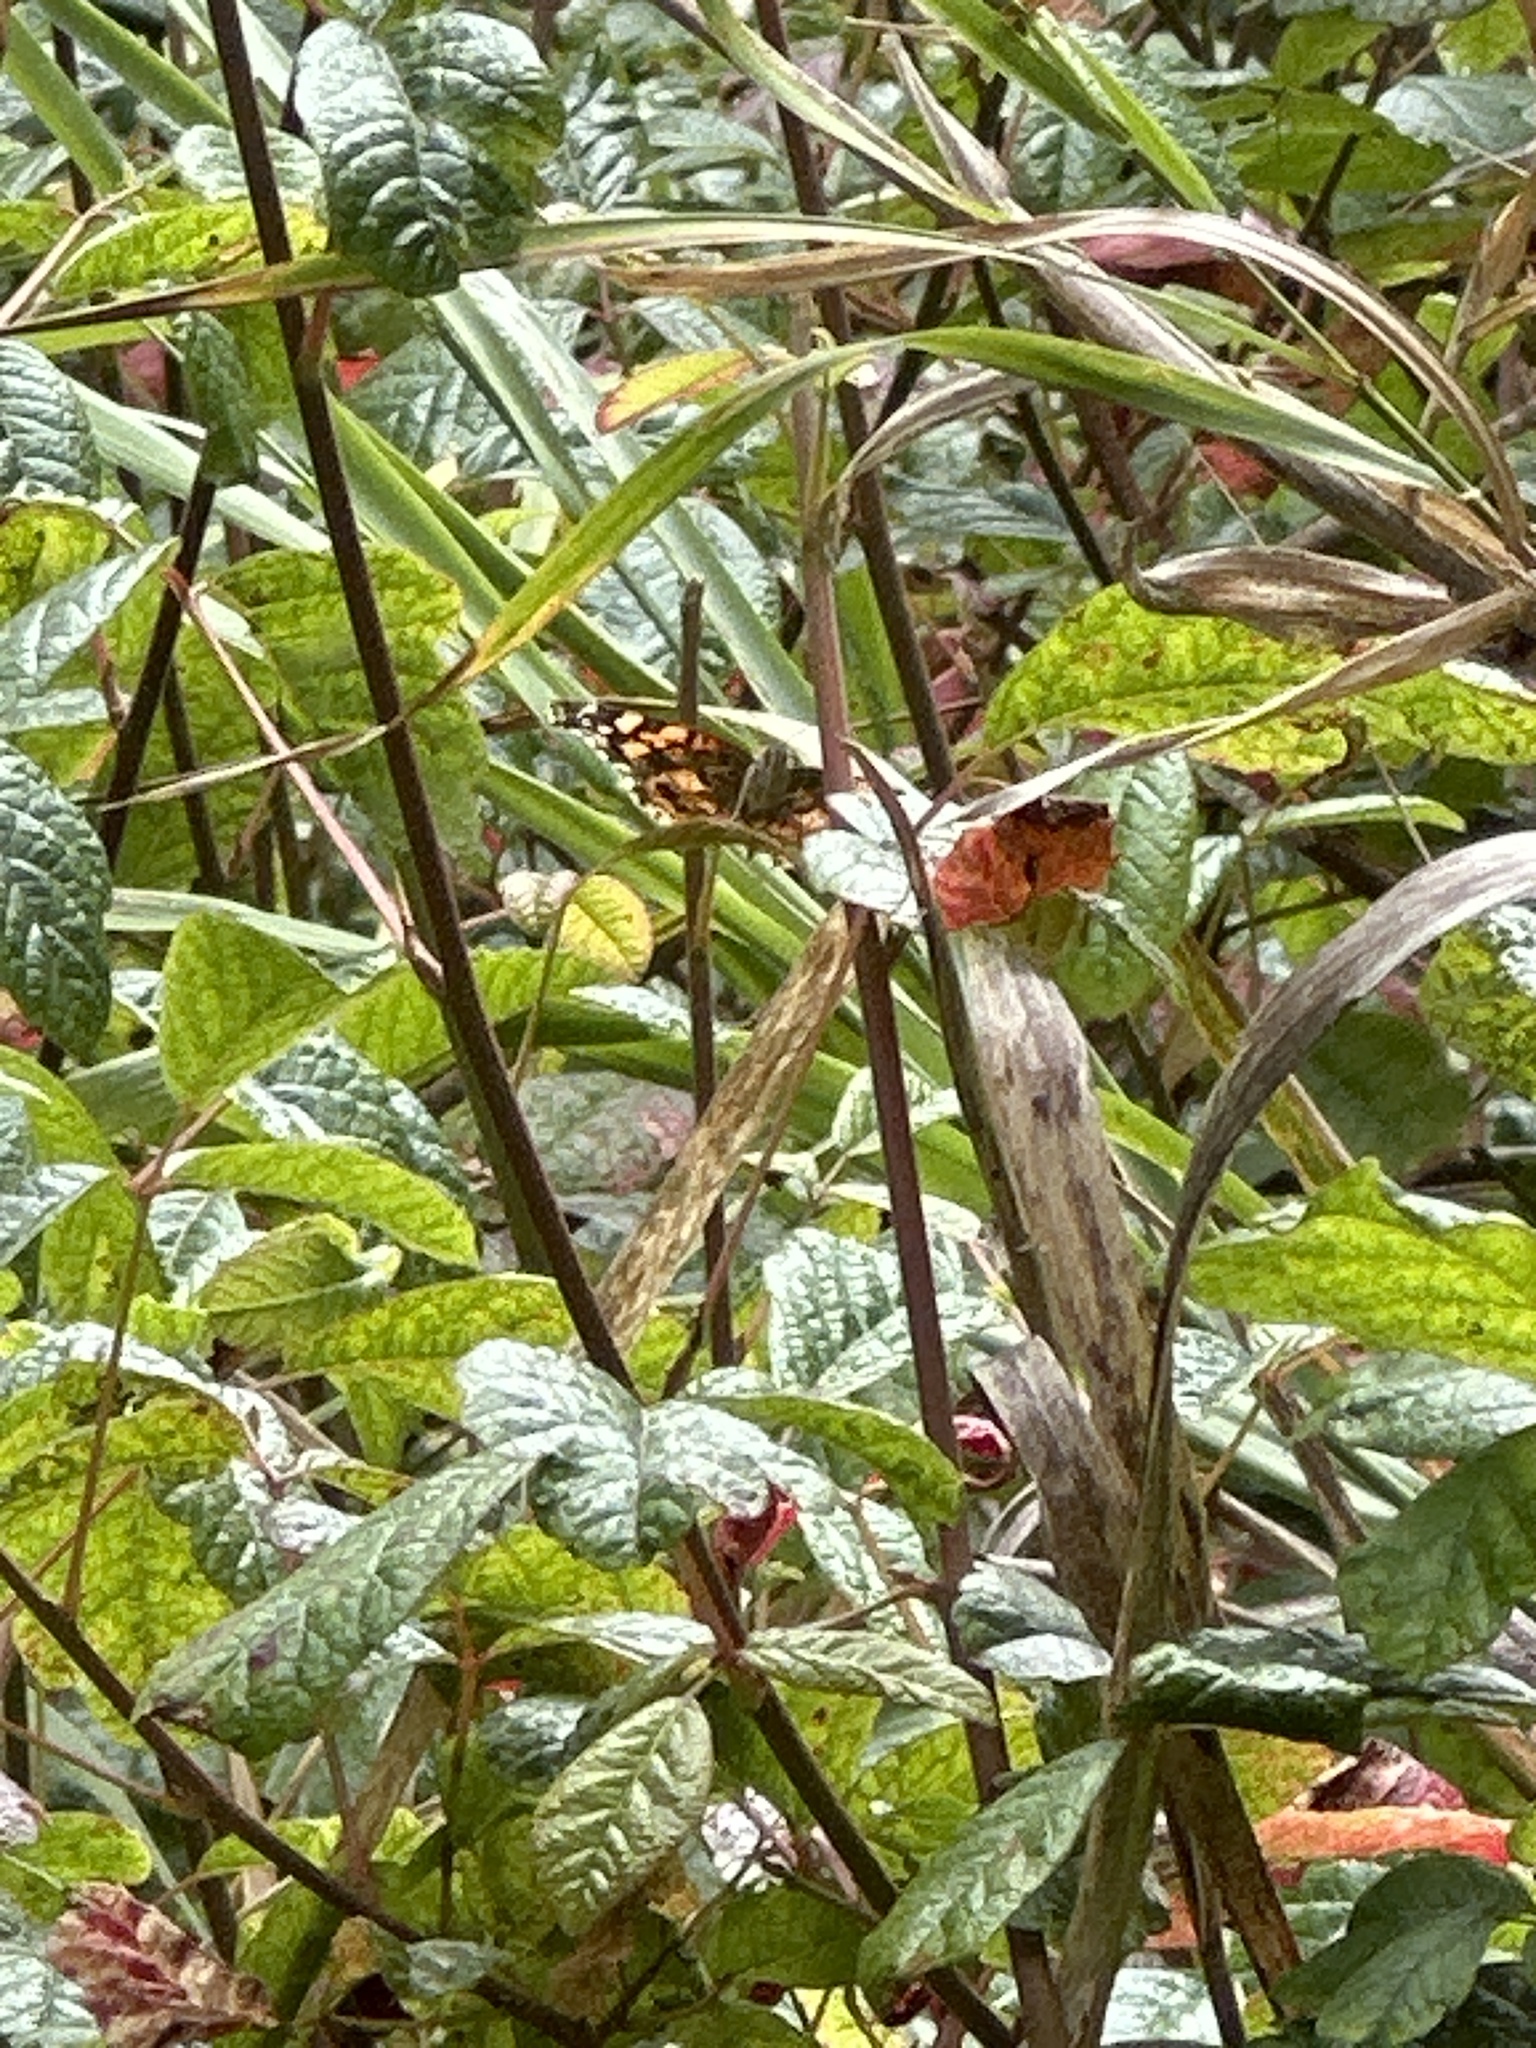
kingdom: Animalia
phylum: Arthropoda
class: Insecta
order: Lepidoptera
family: Nymphalidae
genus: Vanessa
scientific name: Vanessa annabella
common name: West coast lady
